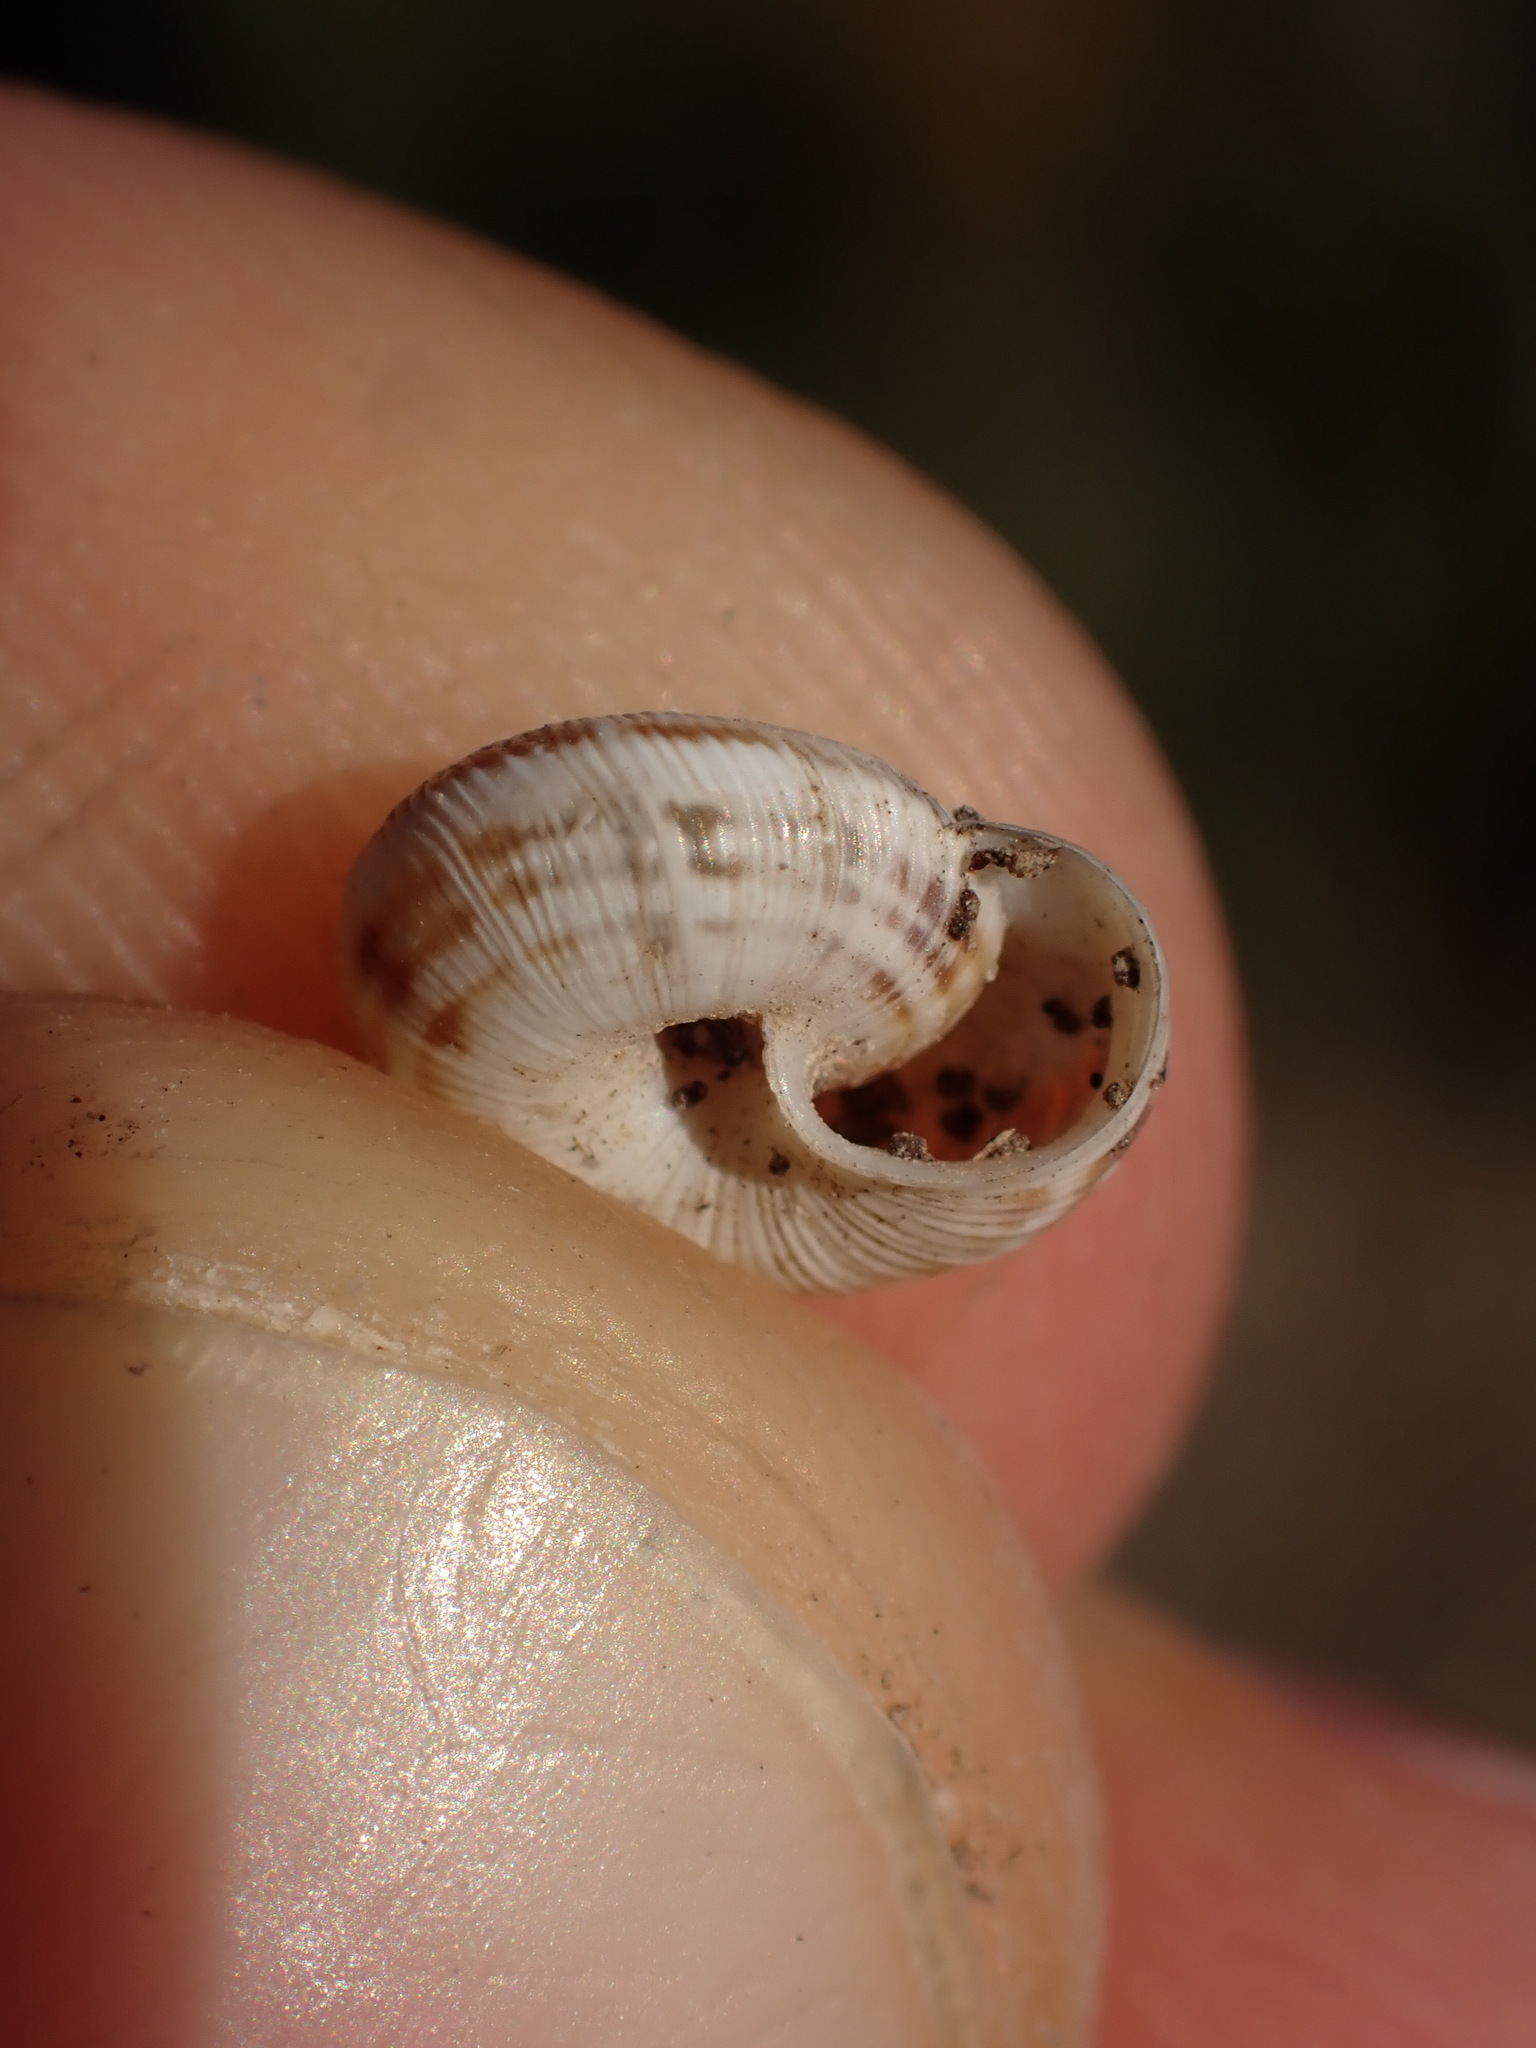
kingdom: Animalia
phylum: Mollusca
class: Gastropoda
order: Stylommatophora
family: Geomitridae
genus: Candidula
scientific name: Candidula unifasciata
